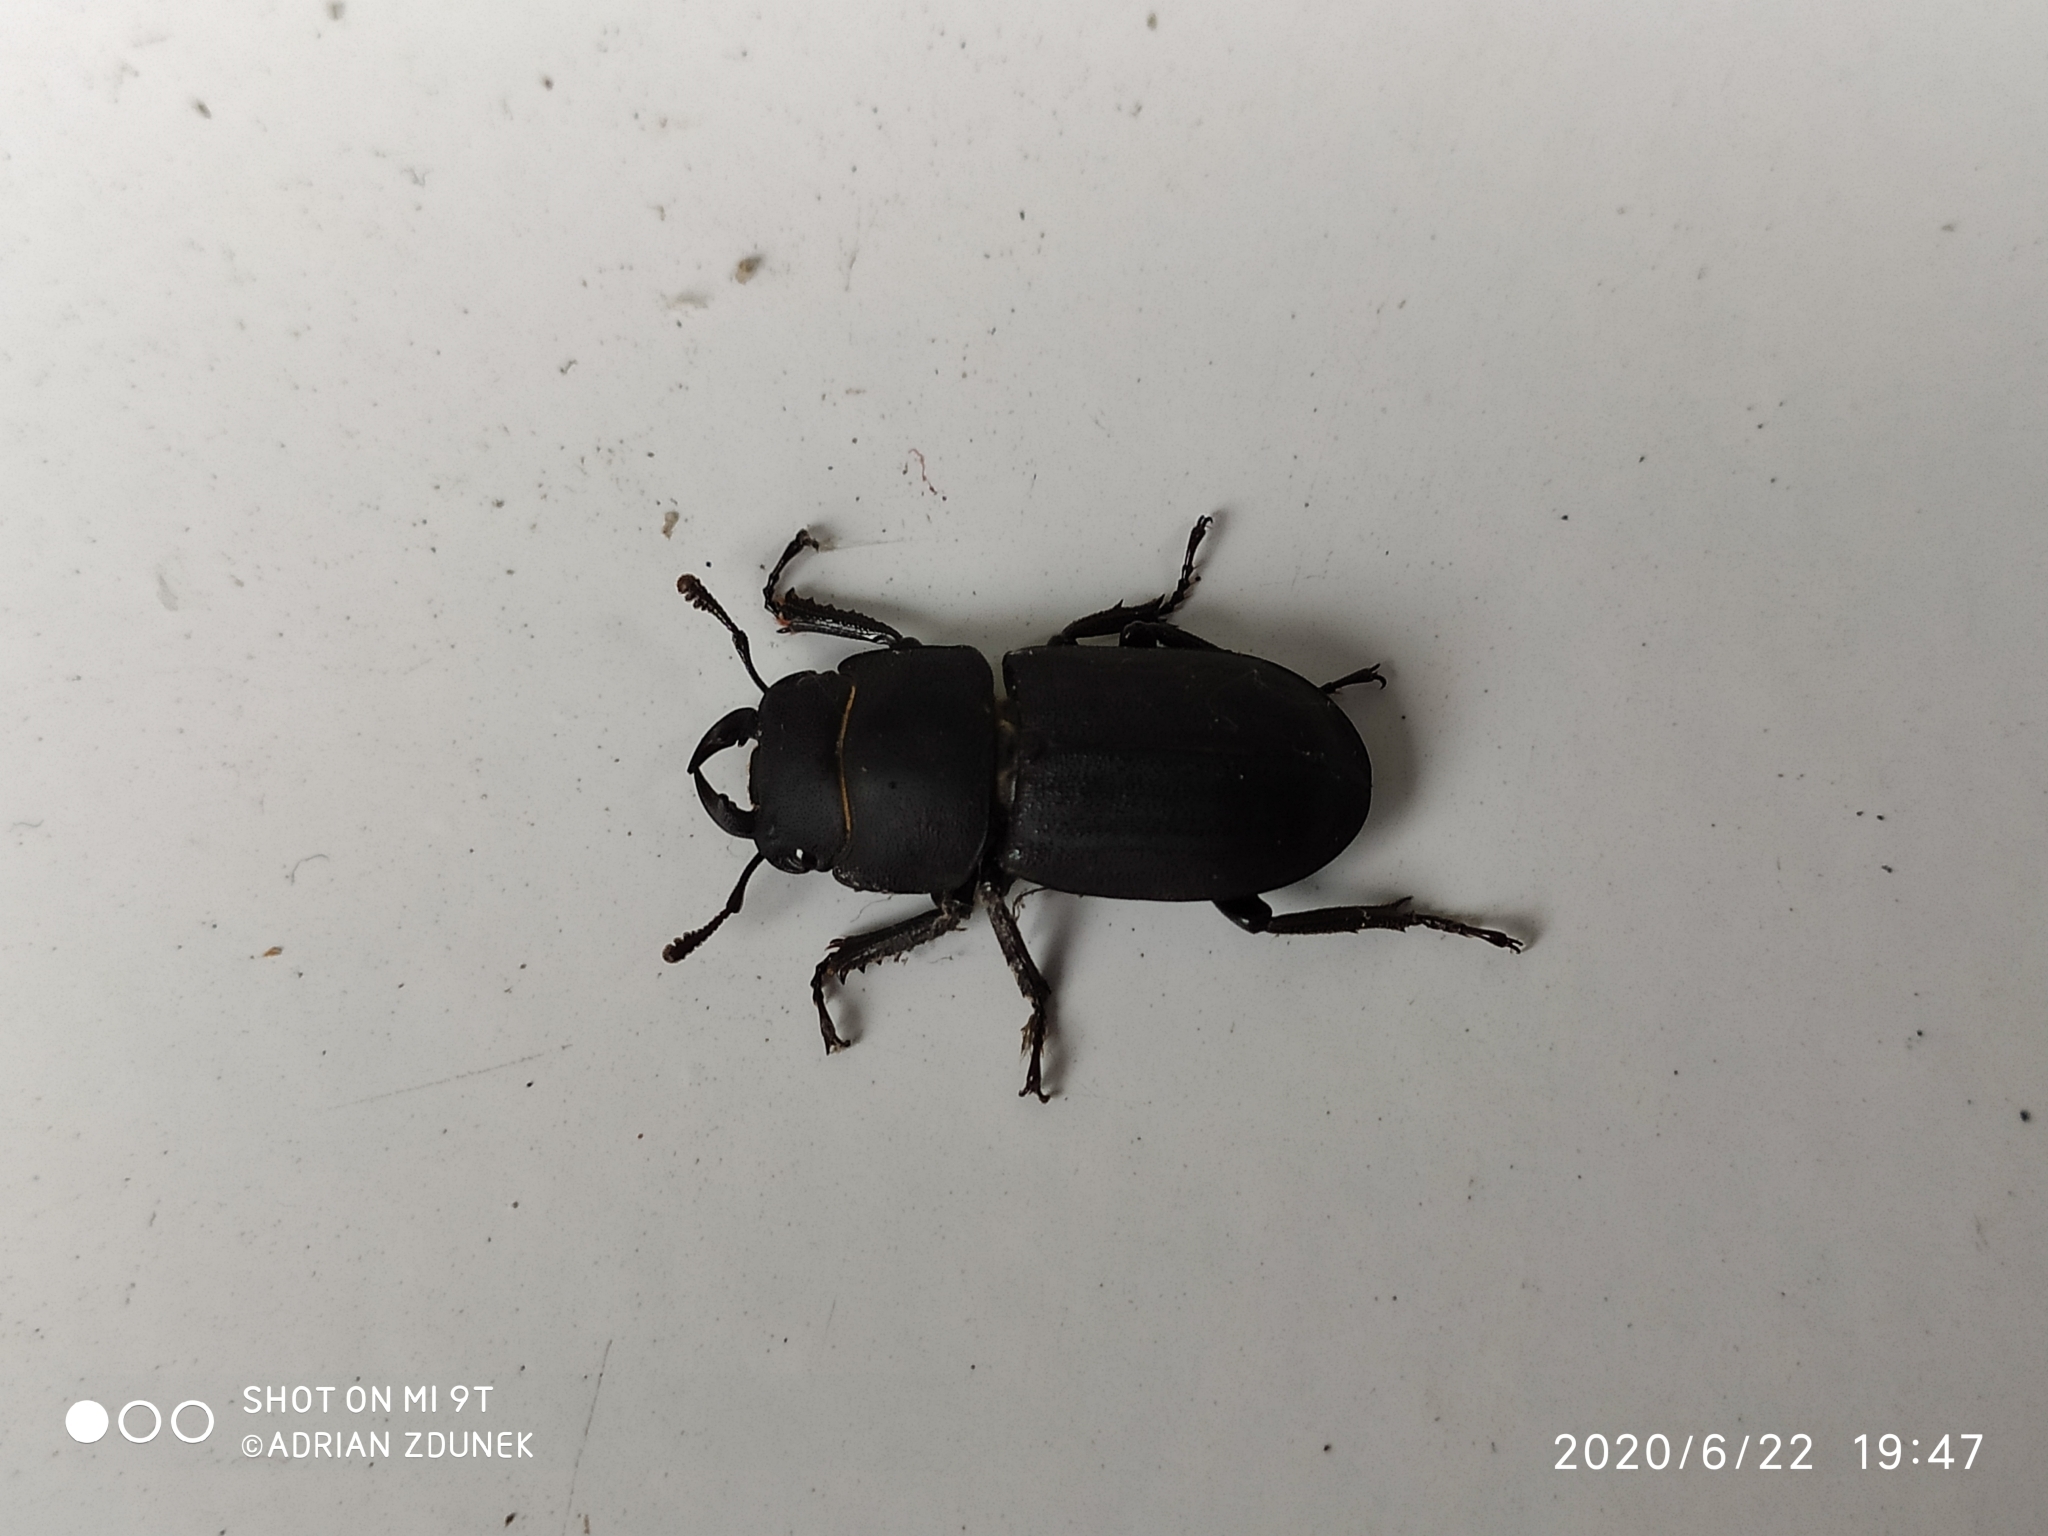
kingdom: Animalia
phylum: Arthropoda
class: Insecta
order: Coleoptera
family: Lucanidae
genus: Dorcus
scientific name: Dorcus parallelipipedus
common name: Lesser stag beetle
